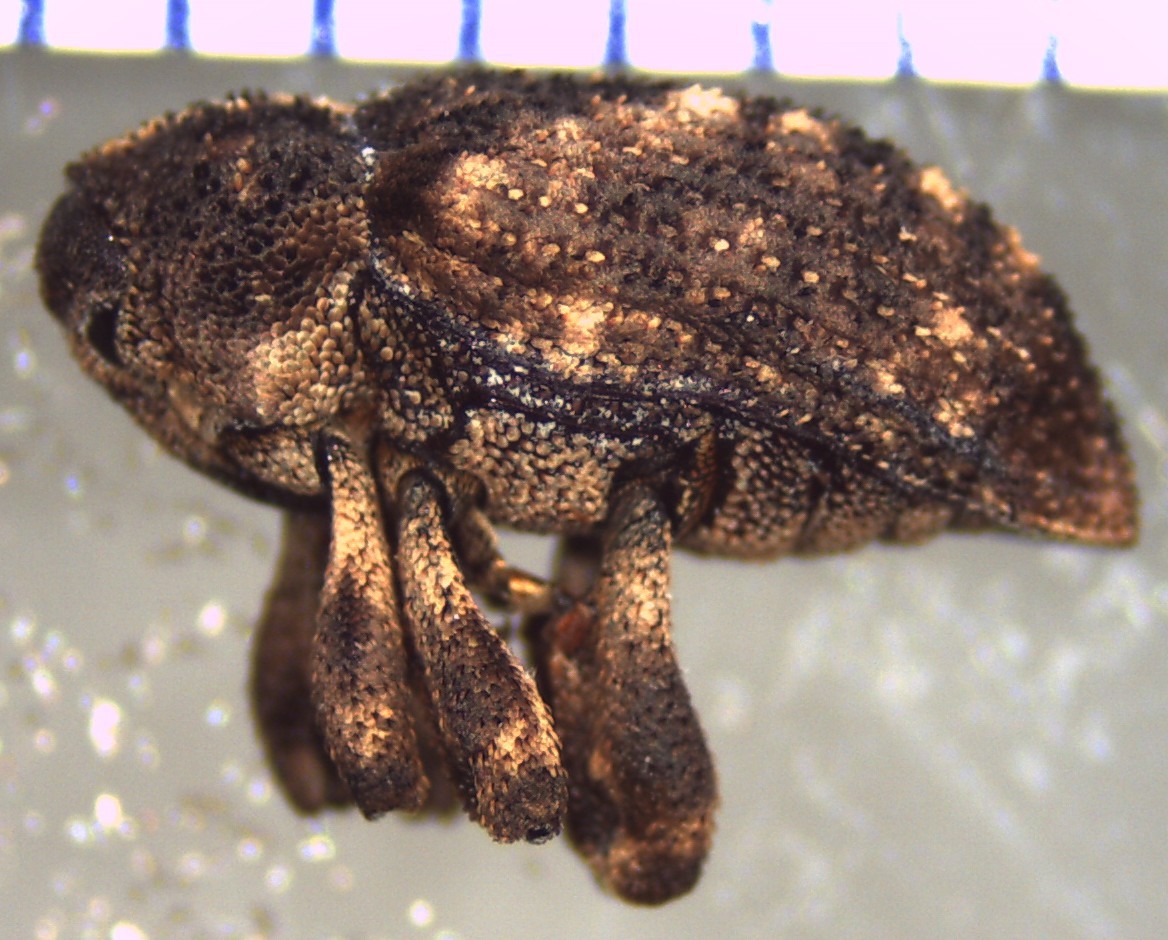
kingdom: Animalia
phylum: Arthropoda
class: Insecta
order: Coleoptera
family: Curculionidae
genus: Sternochetus
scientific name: Sternochetus mangiferae
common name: Mango seed weevil
